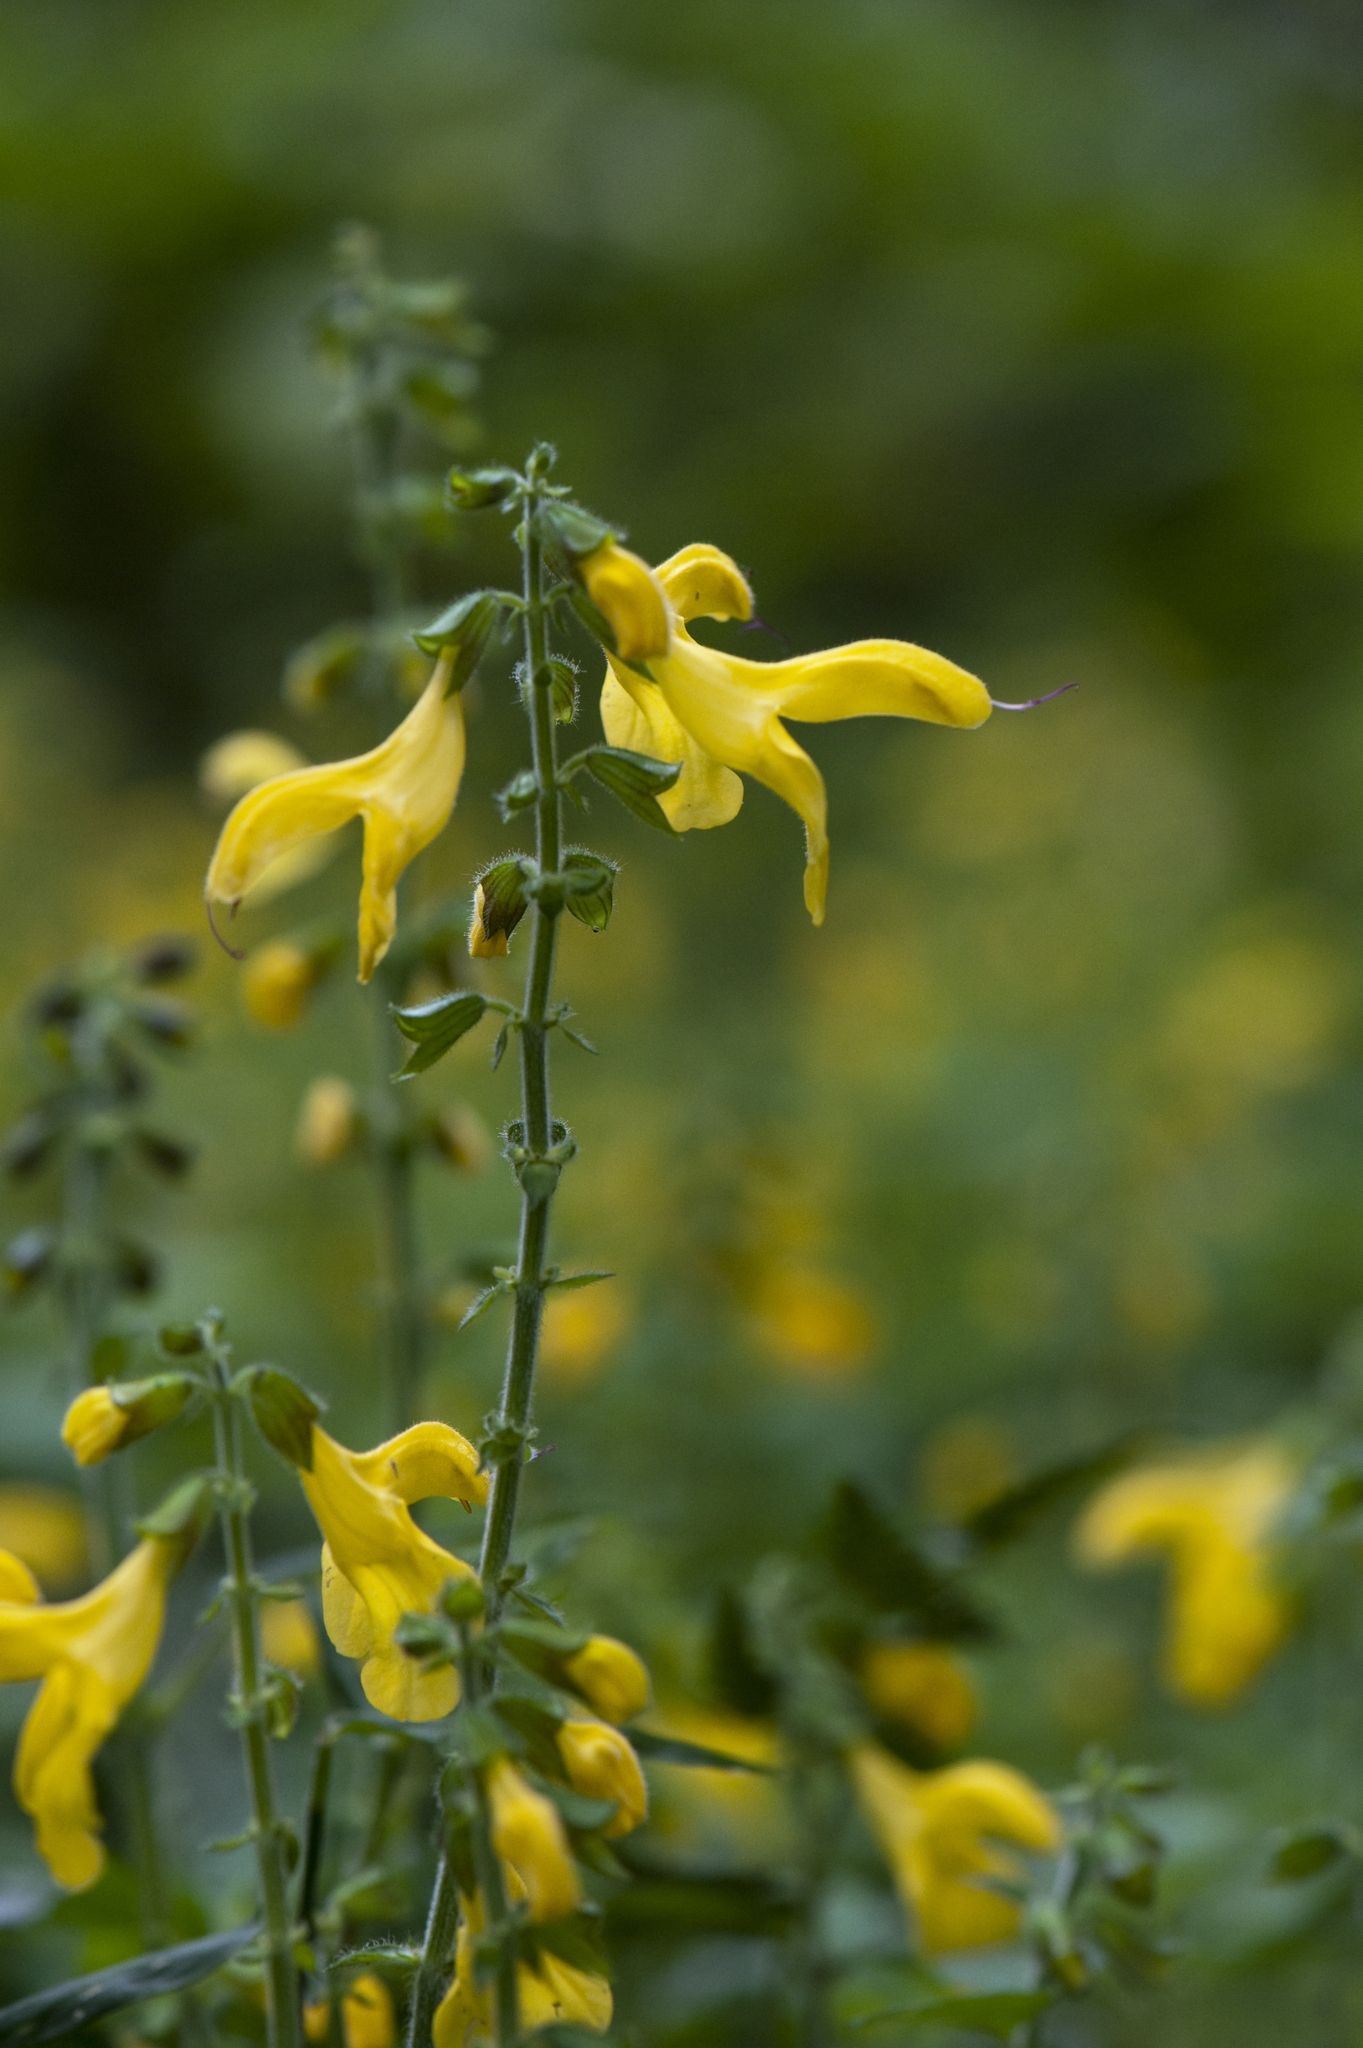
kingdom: Plantae
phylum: Tracheophyta
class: Magnoliopsida
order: Lamiales
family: Lamiaceae
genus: Salvia
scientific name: Salvia japonica
